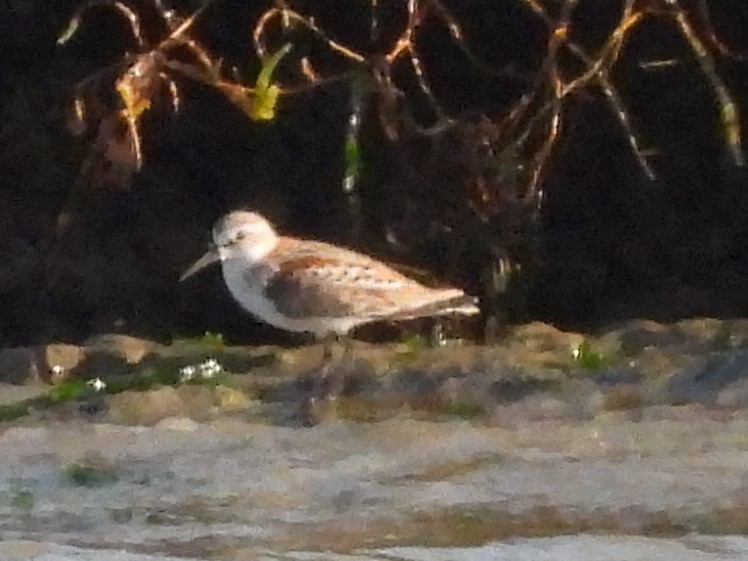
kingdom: Animalia
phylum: Chordata
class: Aves
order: Charadriiformes
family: Scolopacidae
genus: Calidris
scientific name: Calidris mauri
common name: Western sandpiper
